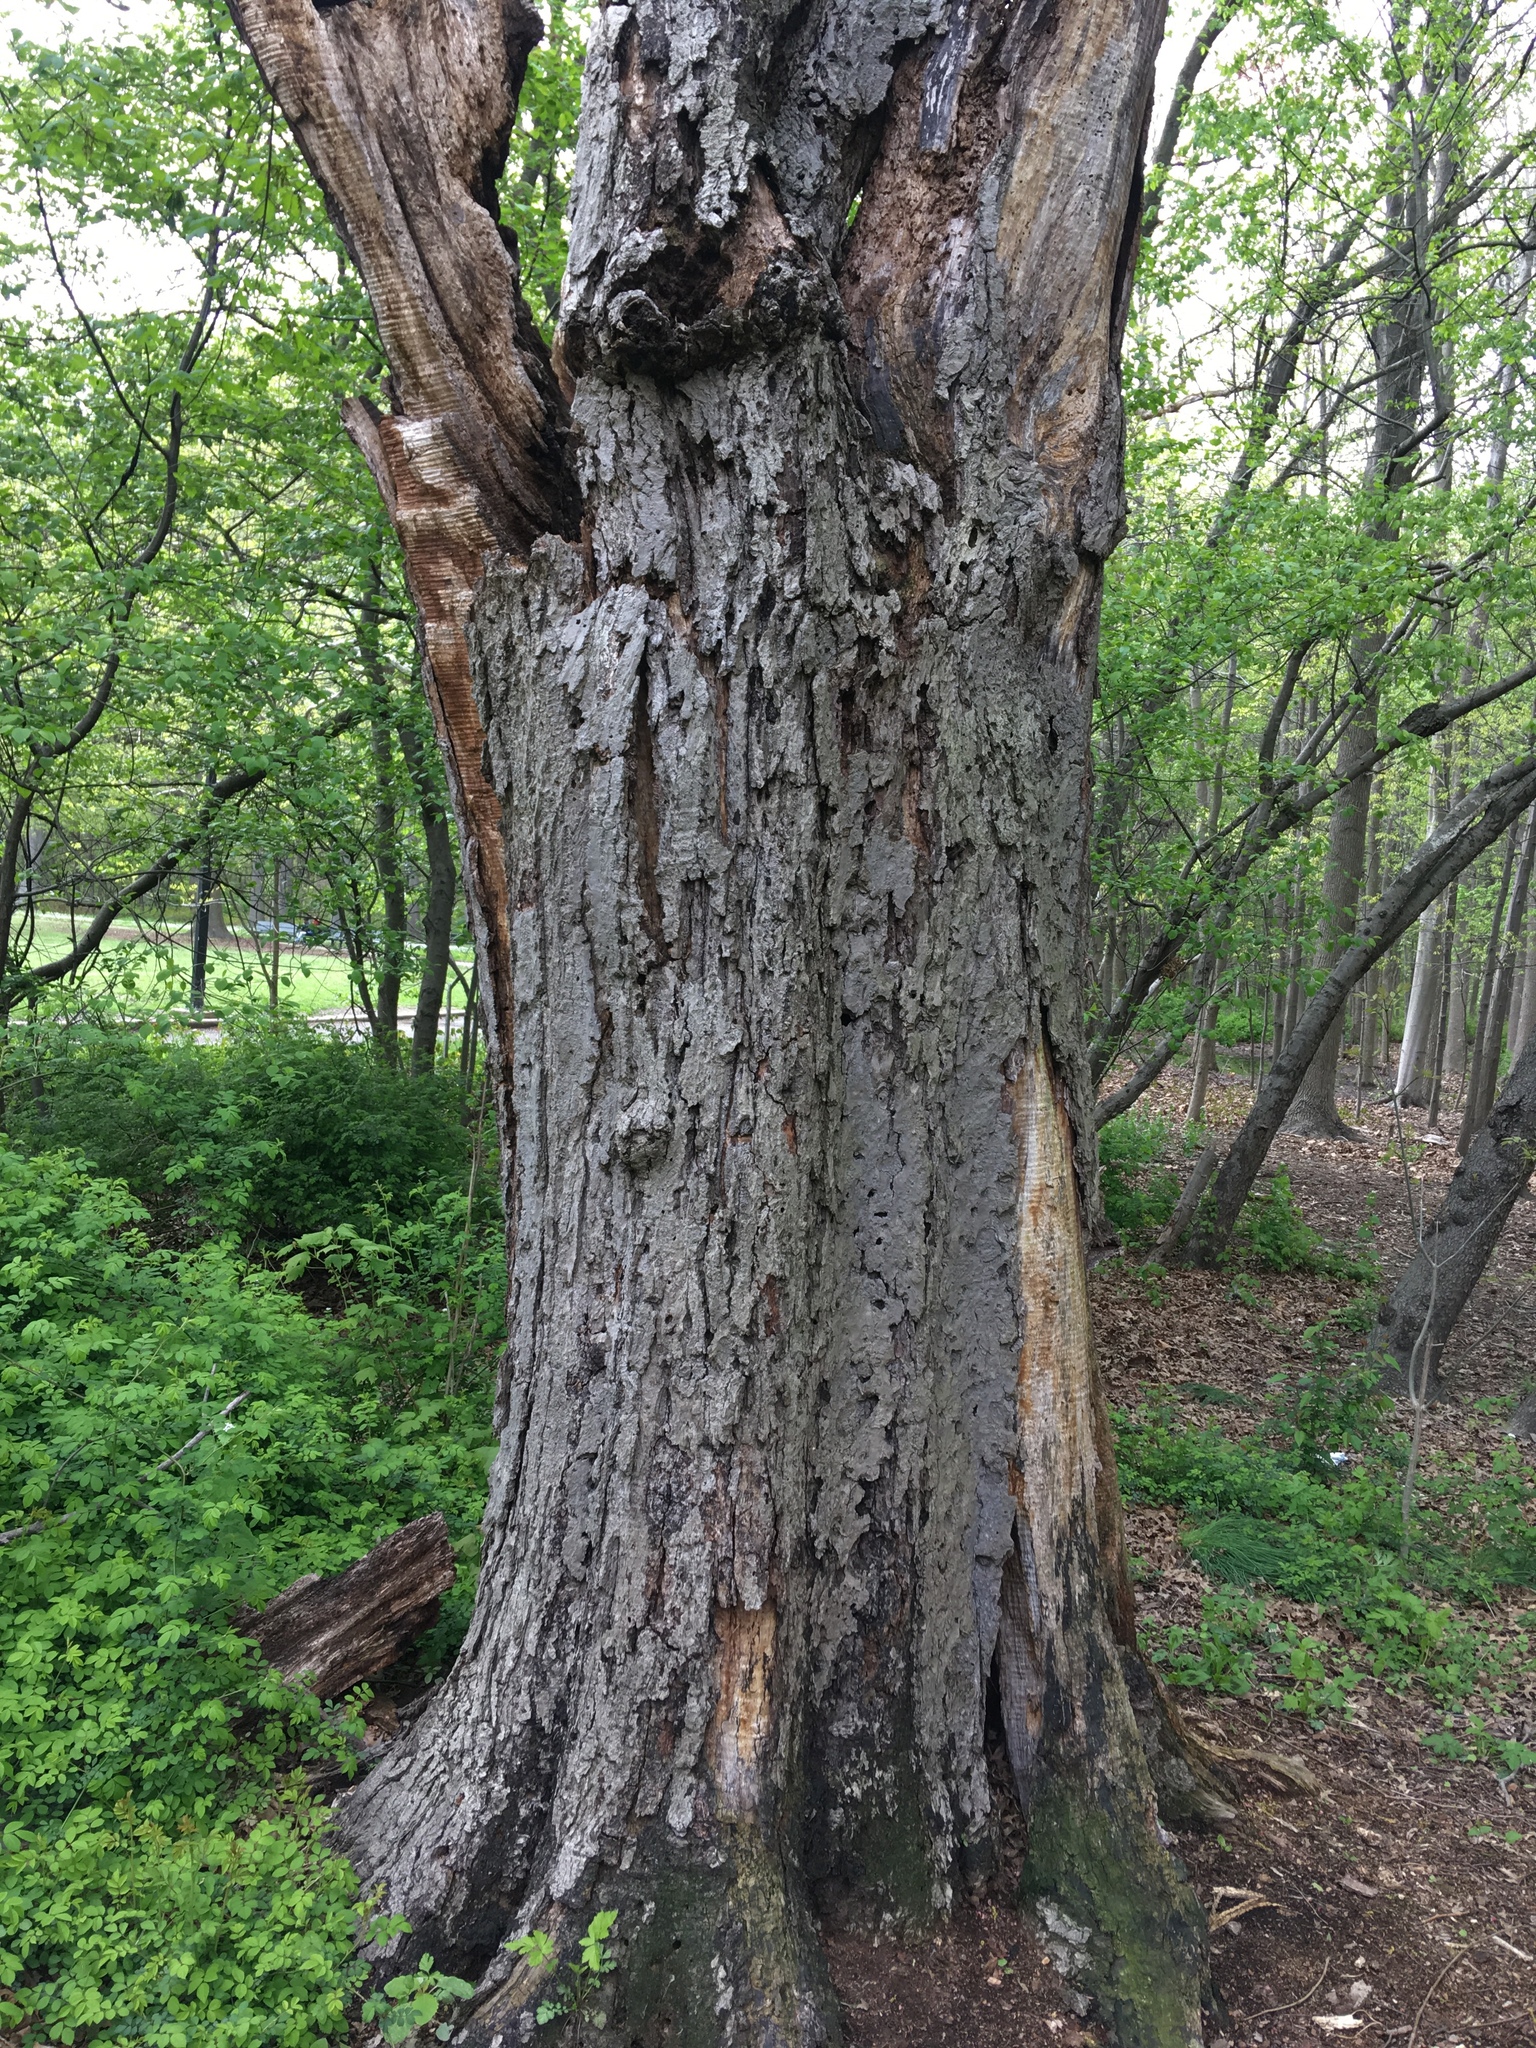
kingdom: Plantae
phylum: Tracheophyta
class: Magnoliopsida
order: Sapindales
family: Sapindaceae
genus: Acer
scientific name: Acer rubrum
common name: Red maple
